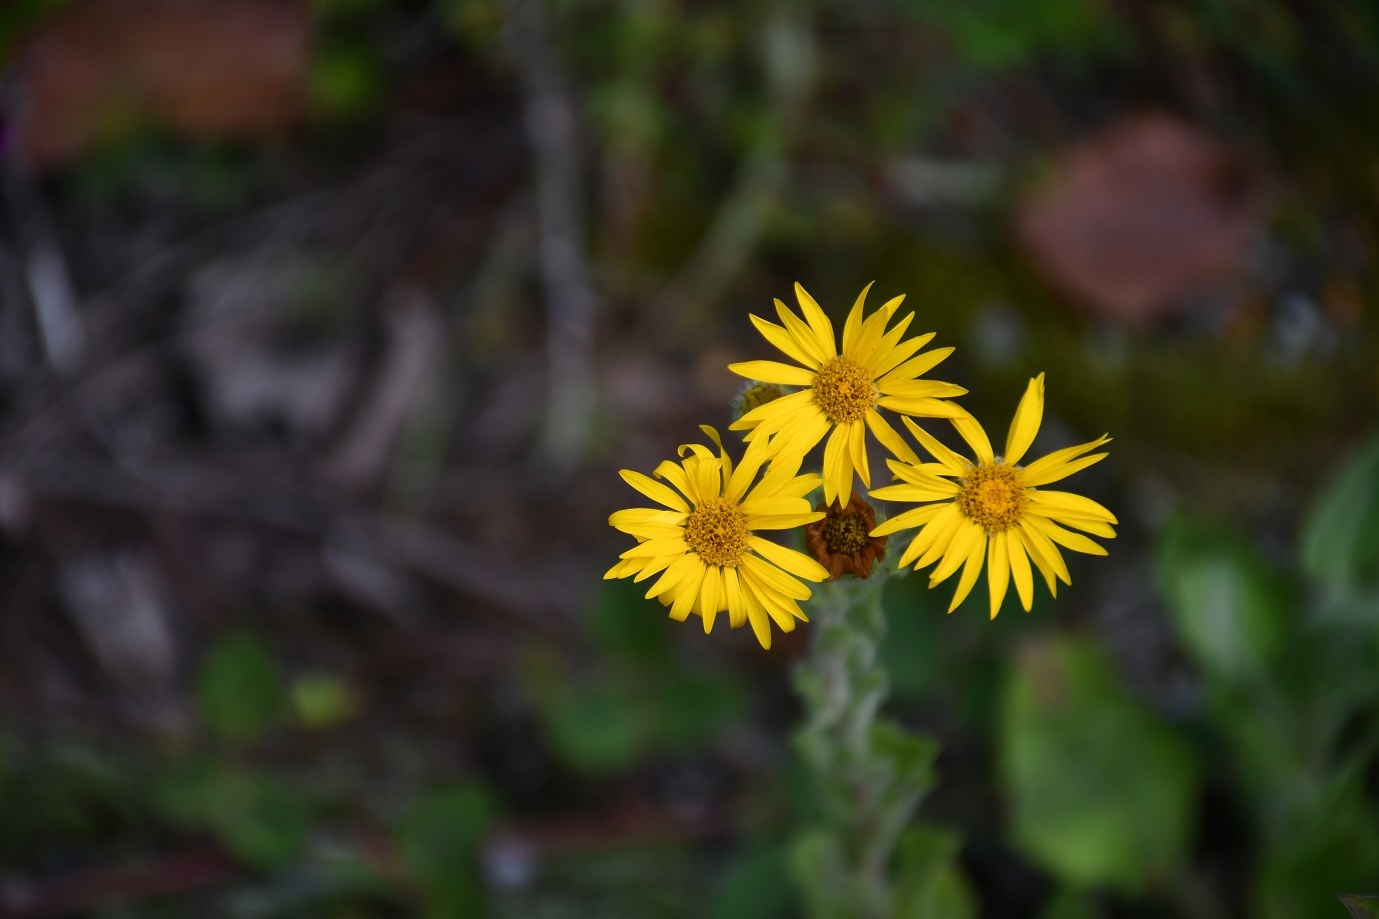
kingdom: Plantae
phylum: Tracheophyta
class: Magnoliopsida
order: Asterales
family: Asteraceae
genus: Heterotheca
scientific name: Heterotheca inuloides
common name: False arnica
